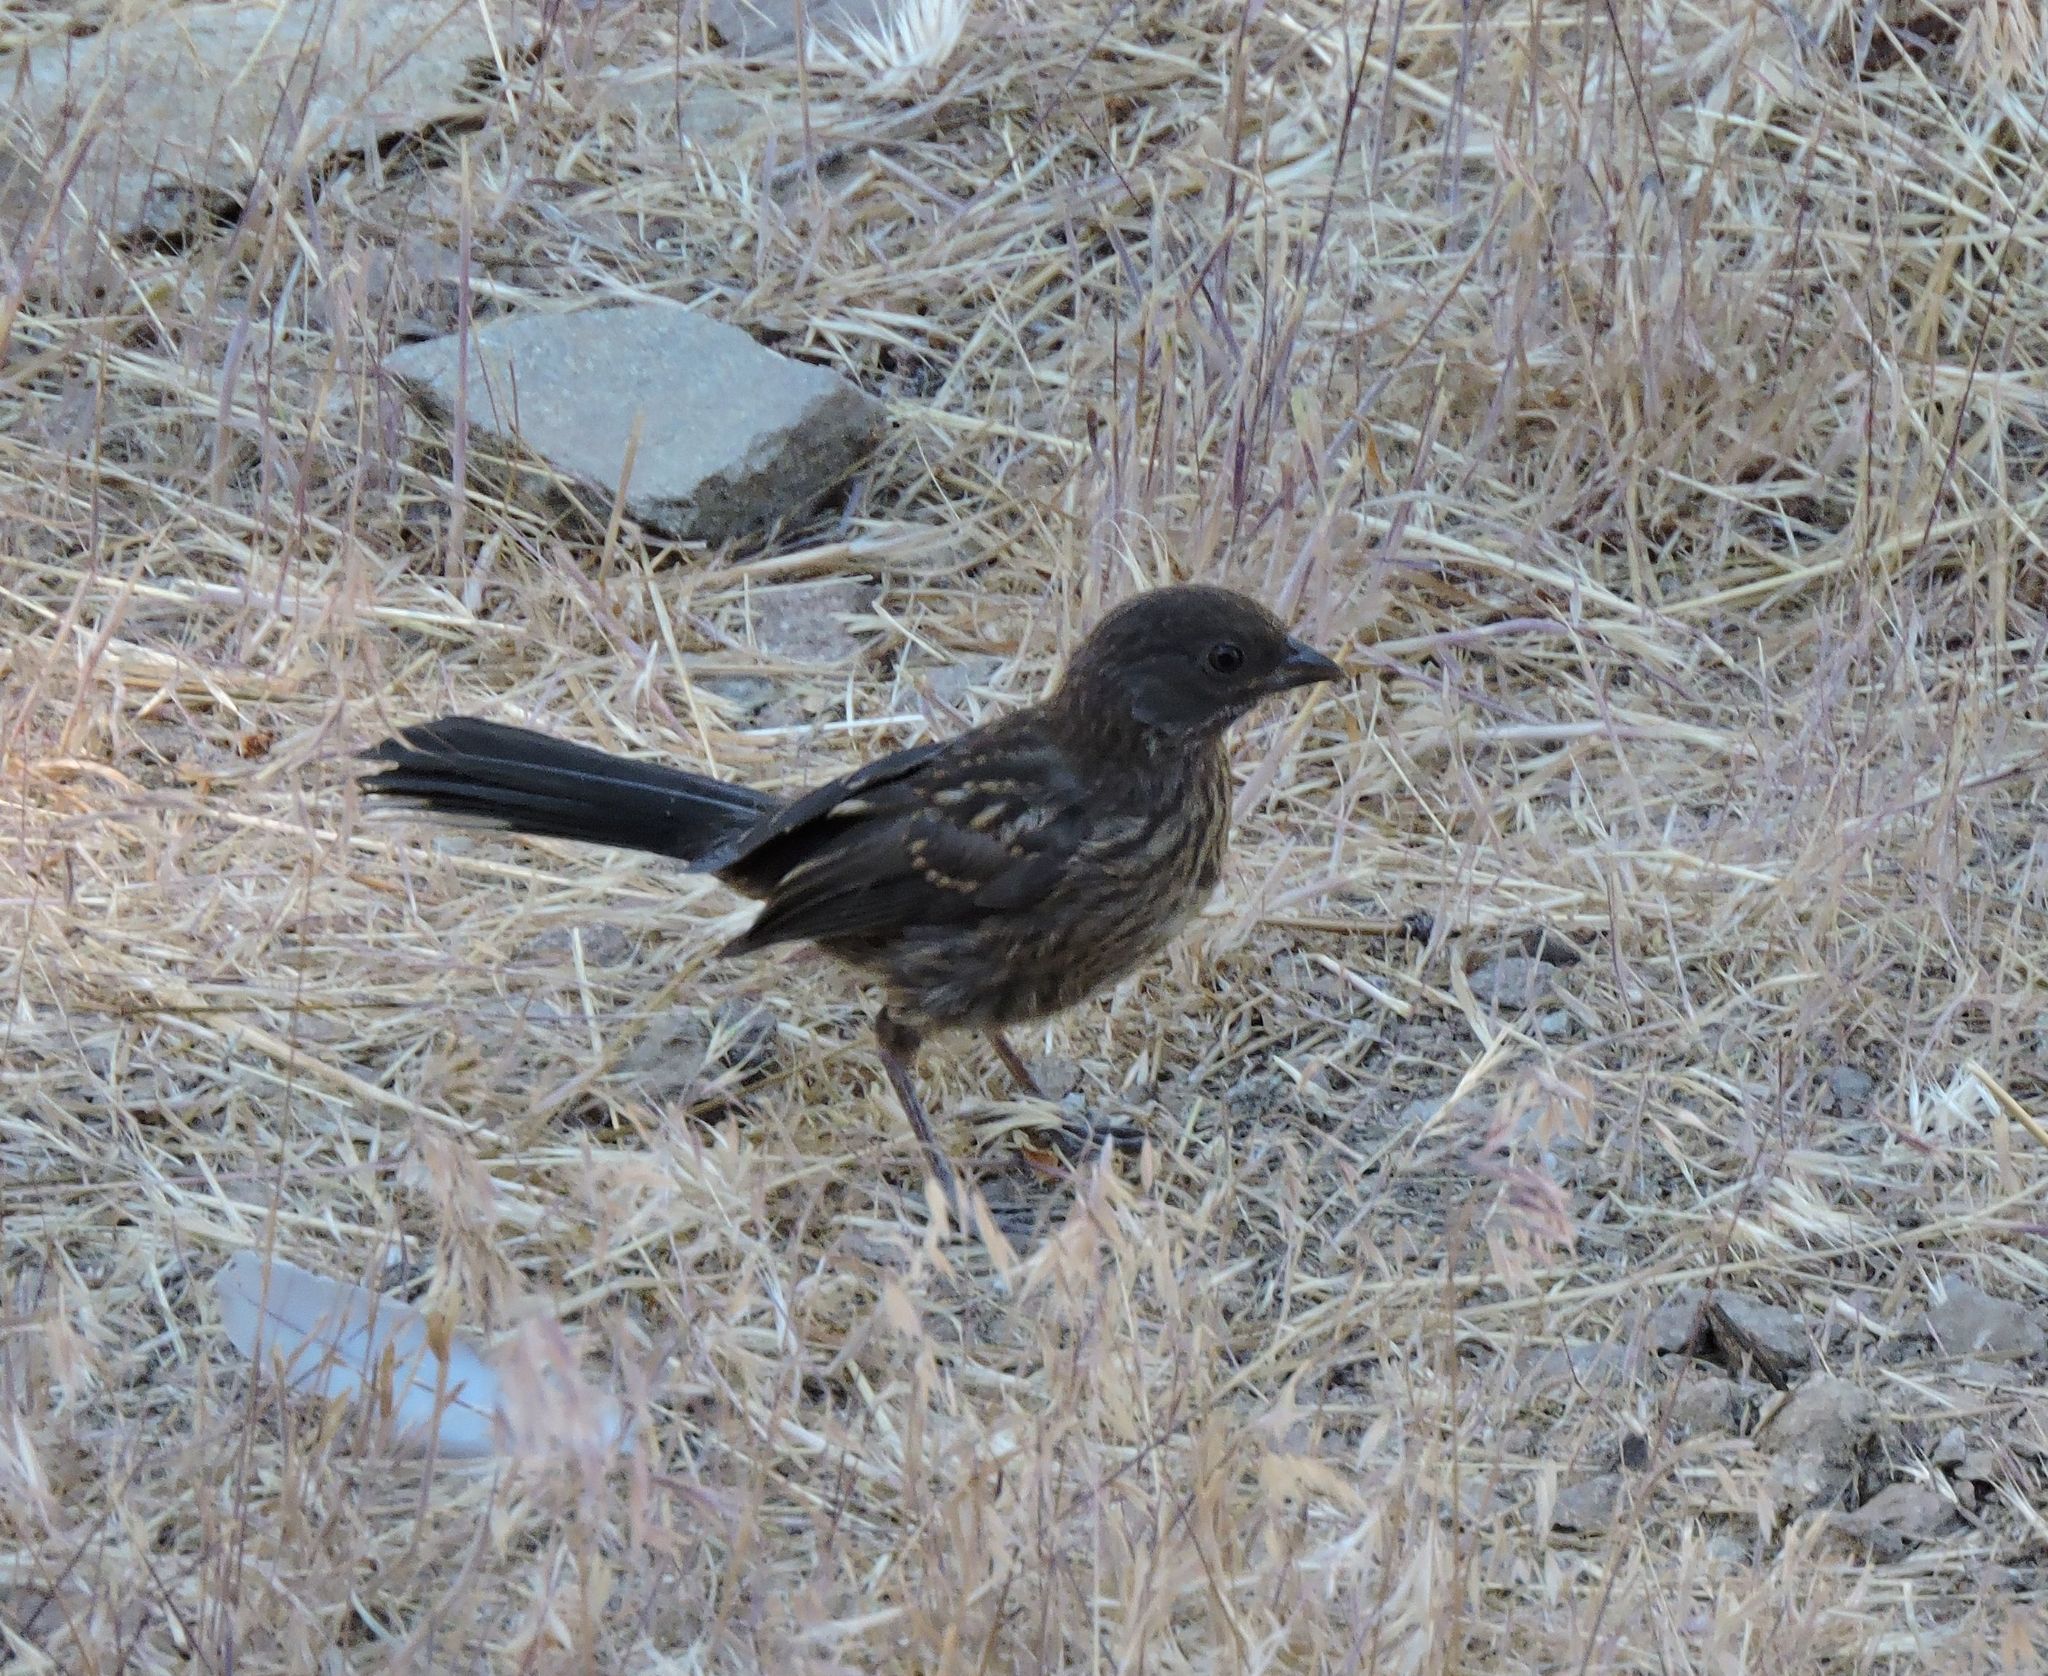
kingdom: Animalia
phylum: Chordata
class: Aves
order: Passeriformes
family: Passerellidae
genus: Pipilo
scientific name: Pipilo maculatus
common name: Spotted towhee
